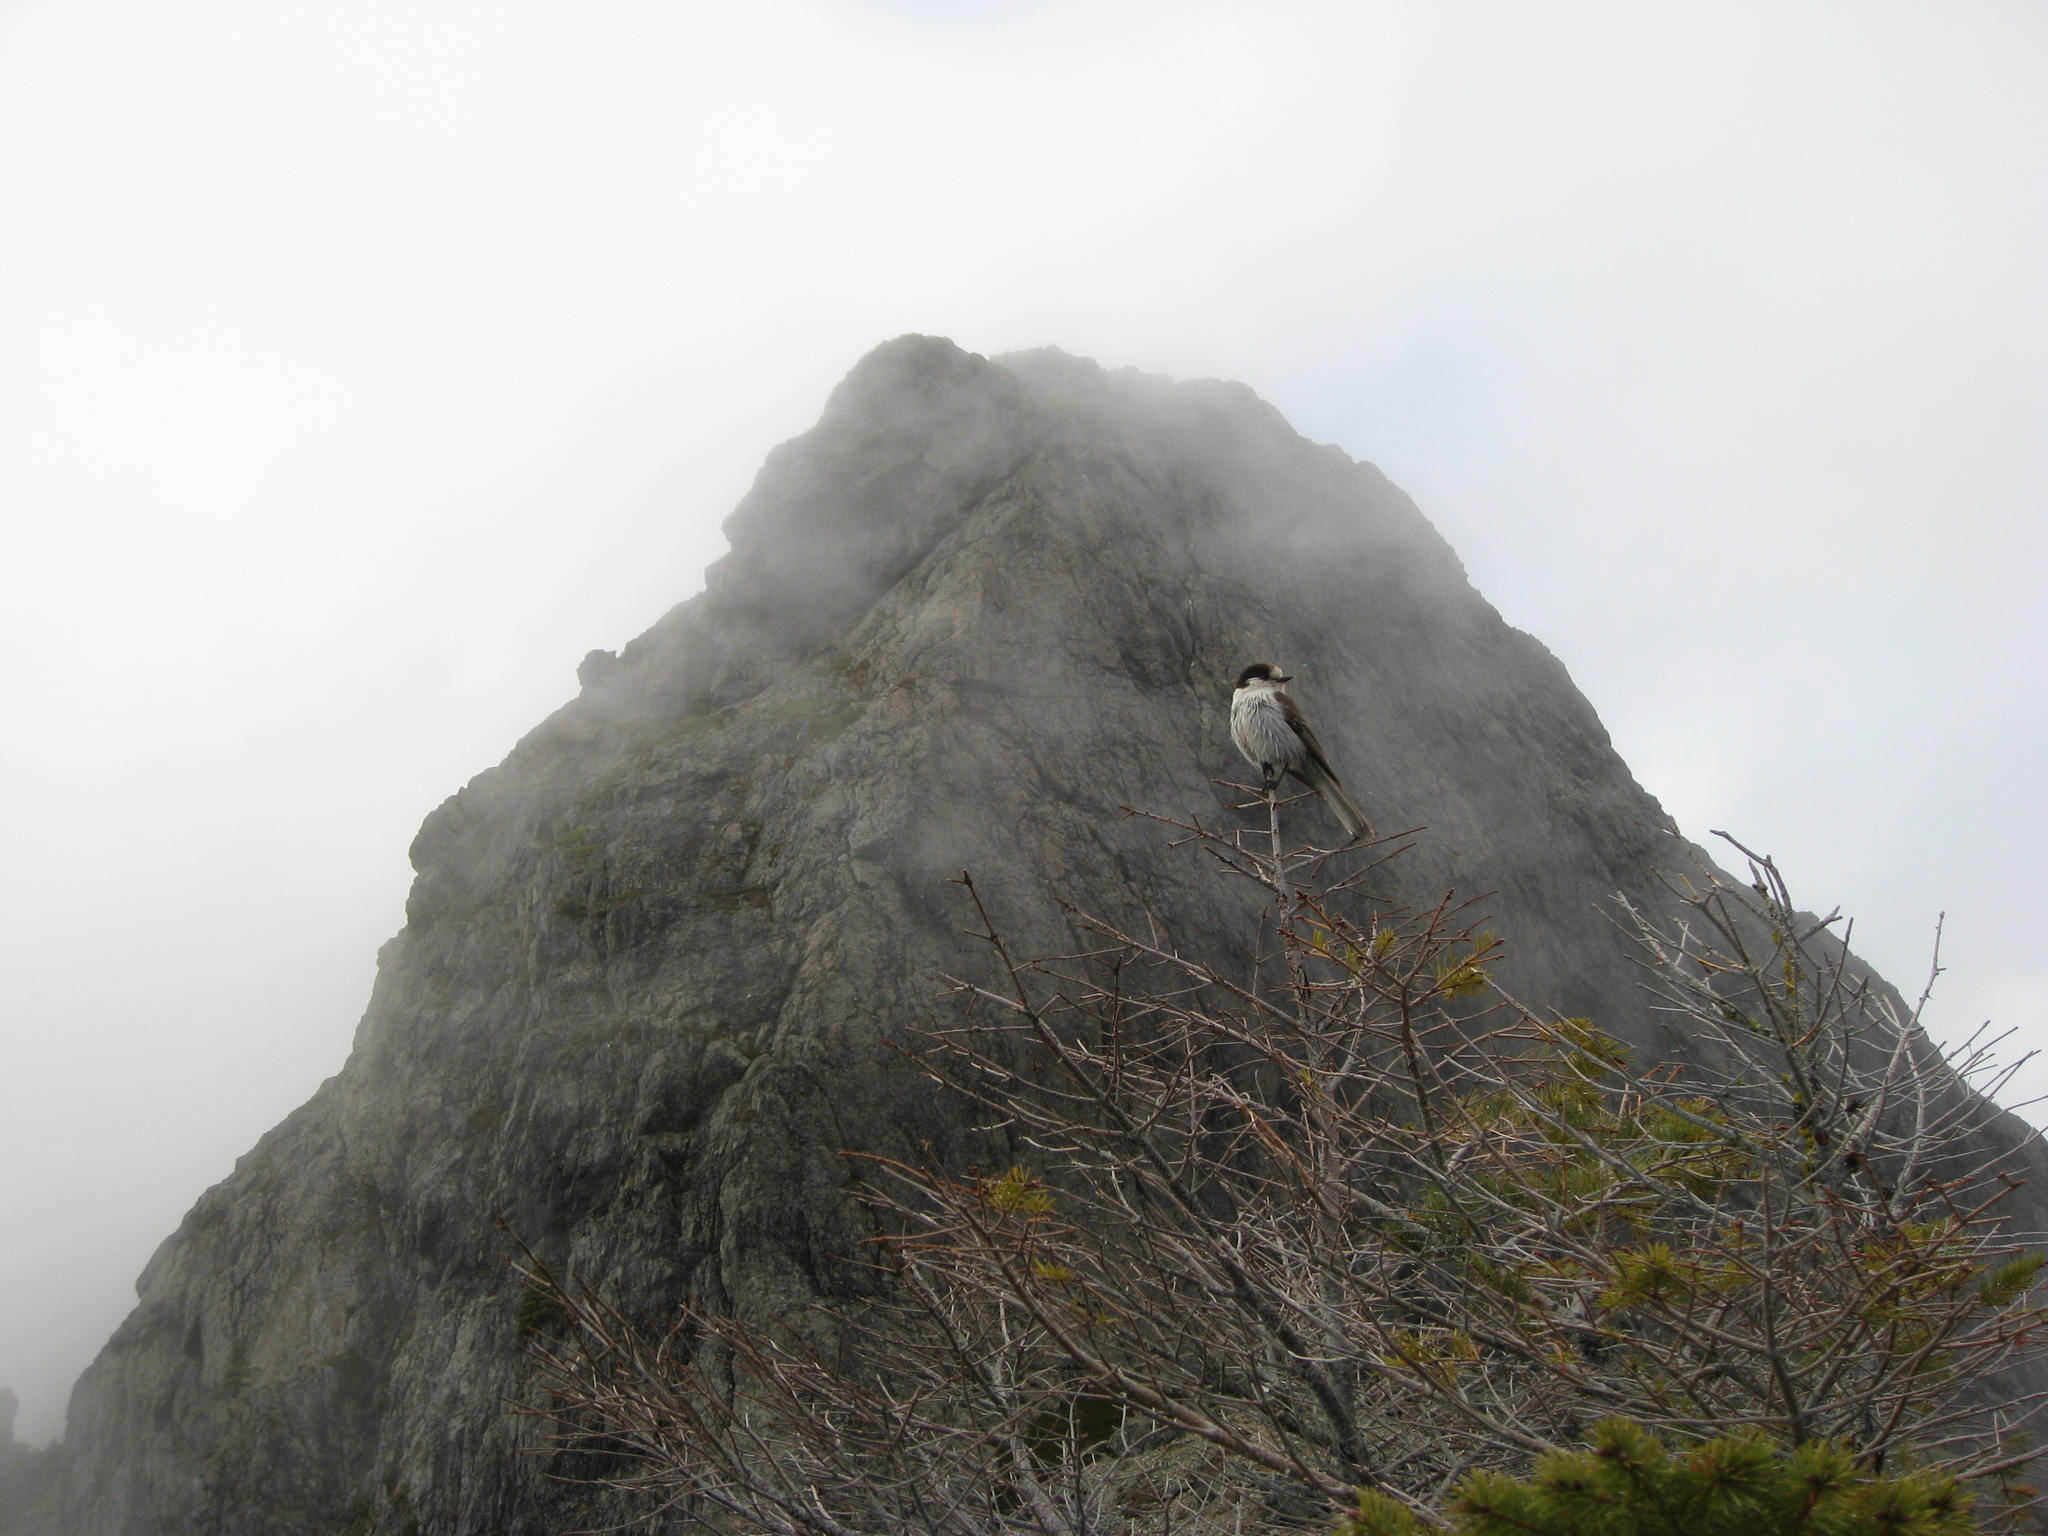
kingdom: Animalia
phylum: Chordata
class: Aves
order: Passeriformes
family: Corvidae
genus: Perisoreus
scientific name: Perisoreus canadensis
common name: Gray jay
